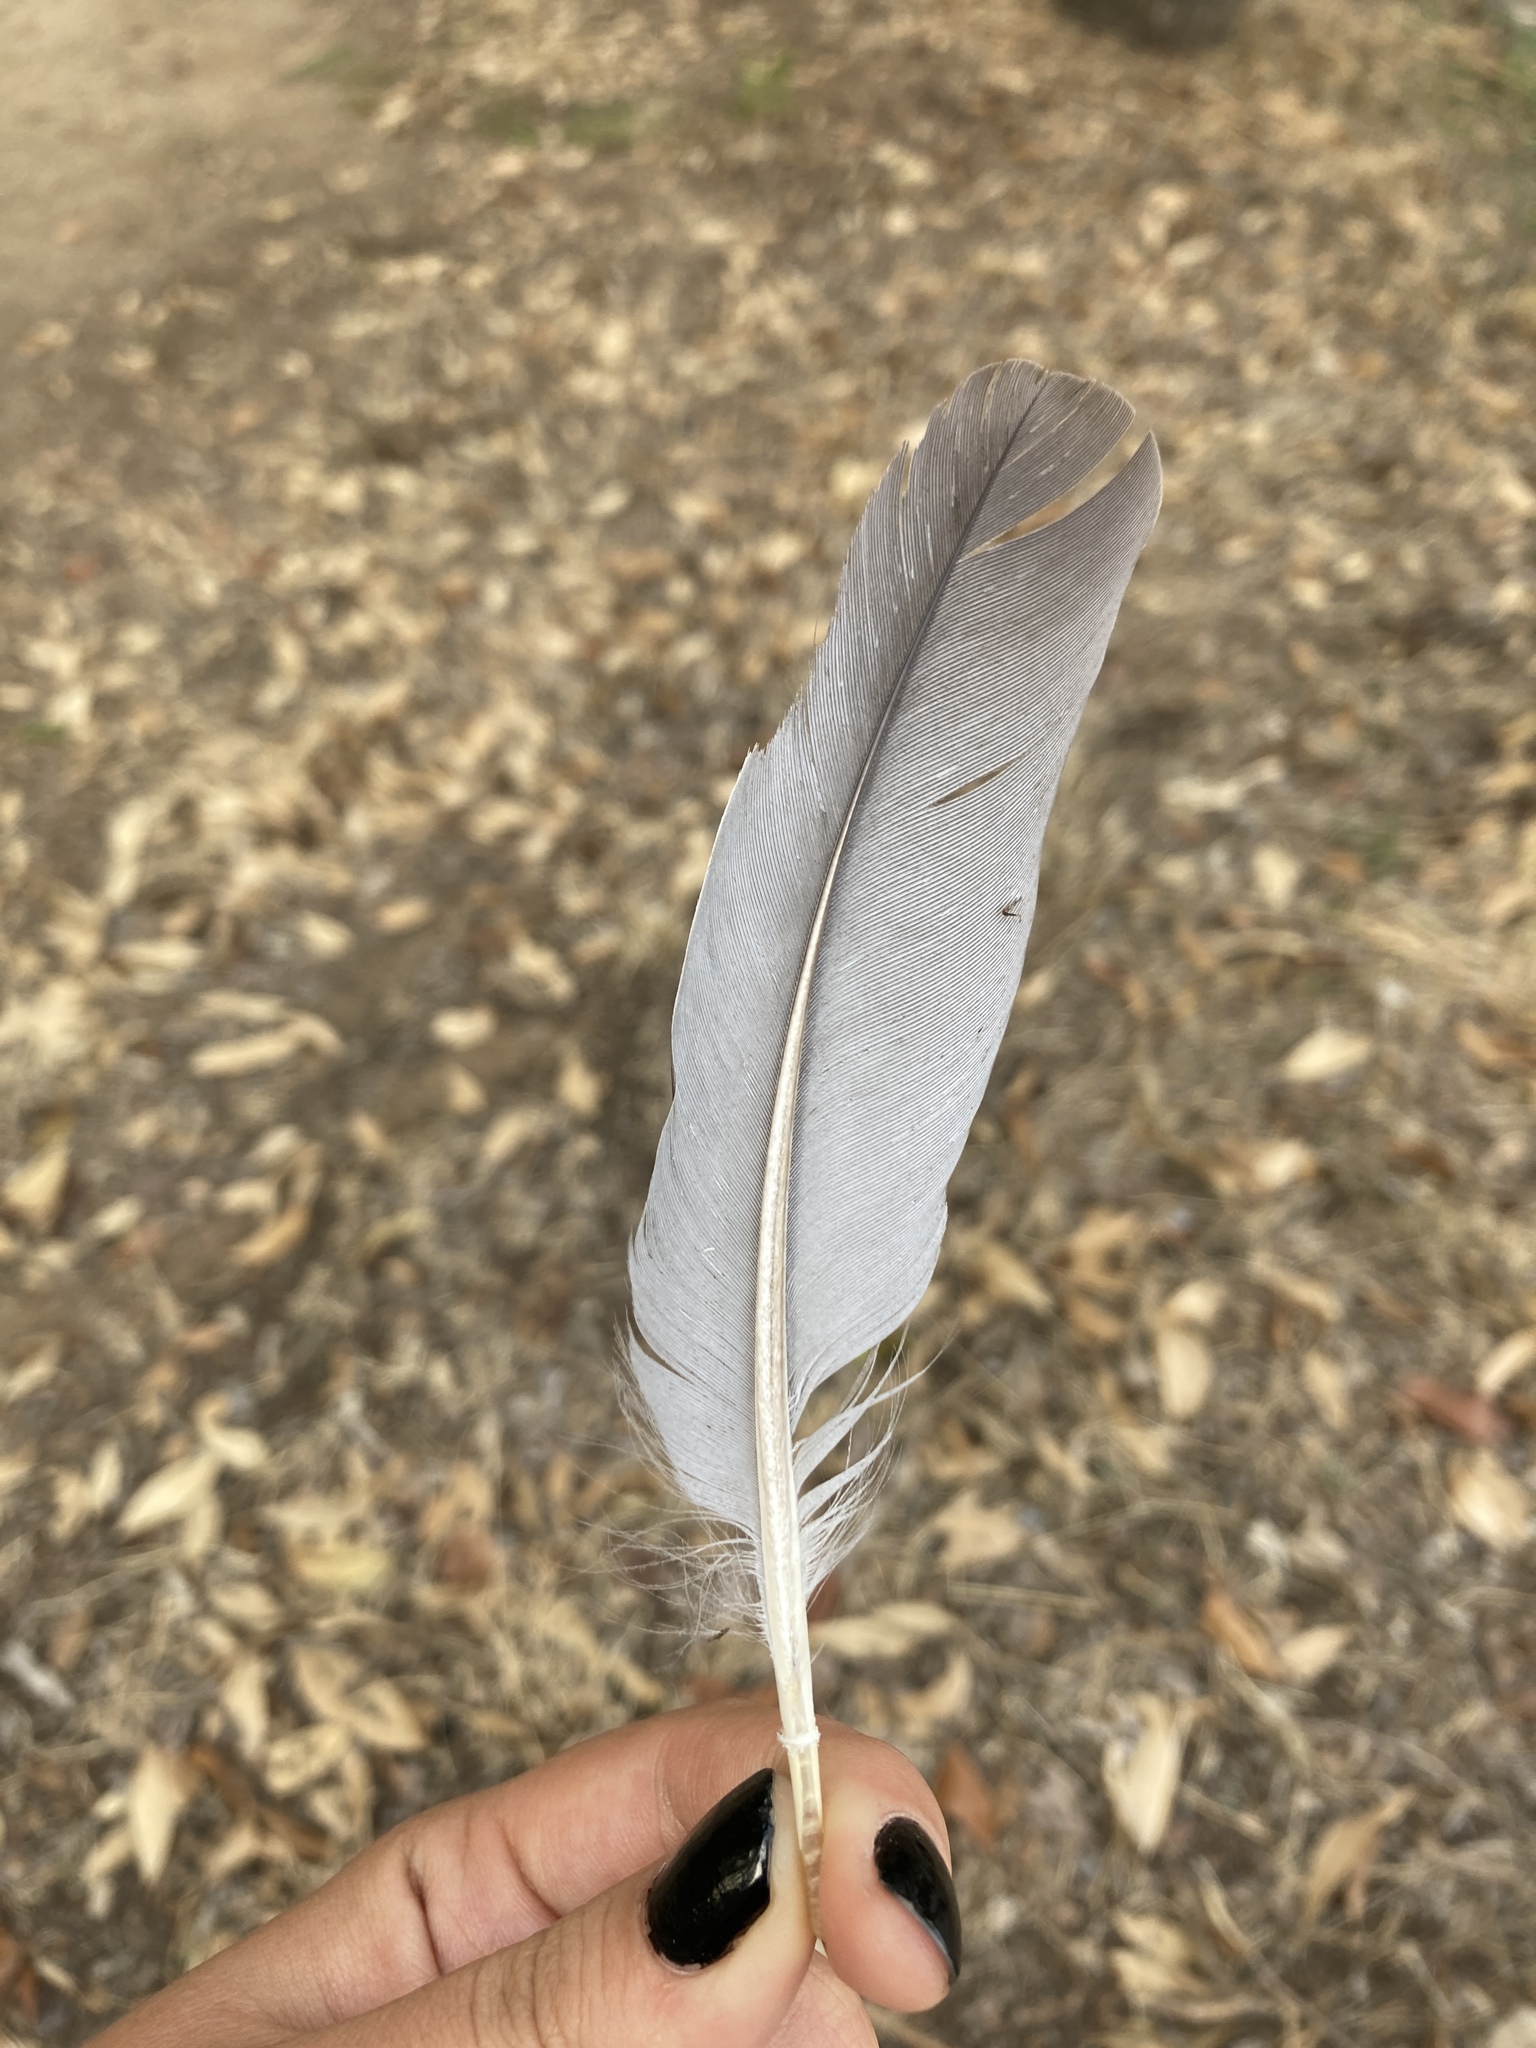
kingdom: Animalia
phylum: Chordata
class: Aves
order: Columbiformes
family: Columbidae
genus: Columba
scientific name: Columba palumbus
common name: Common wood pigeon
